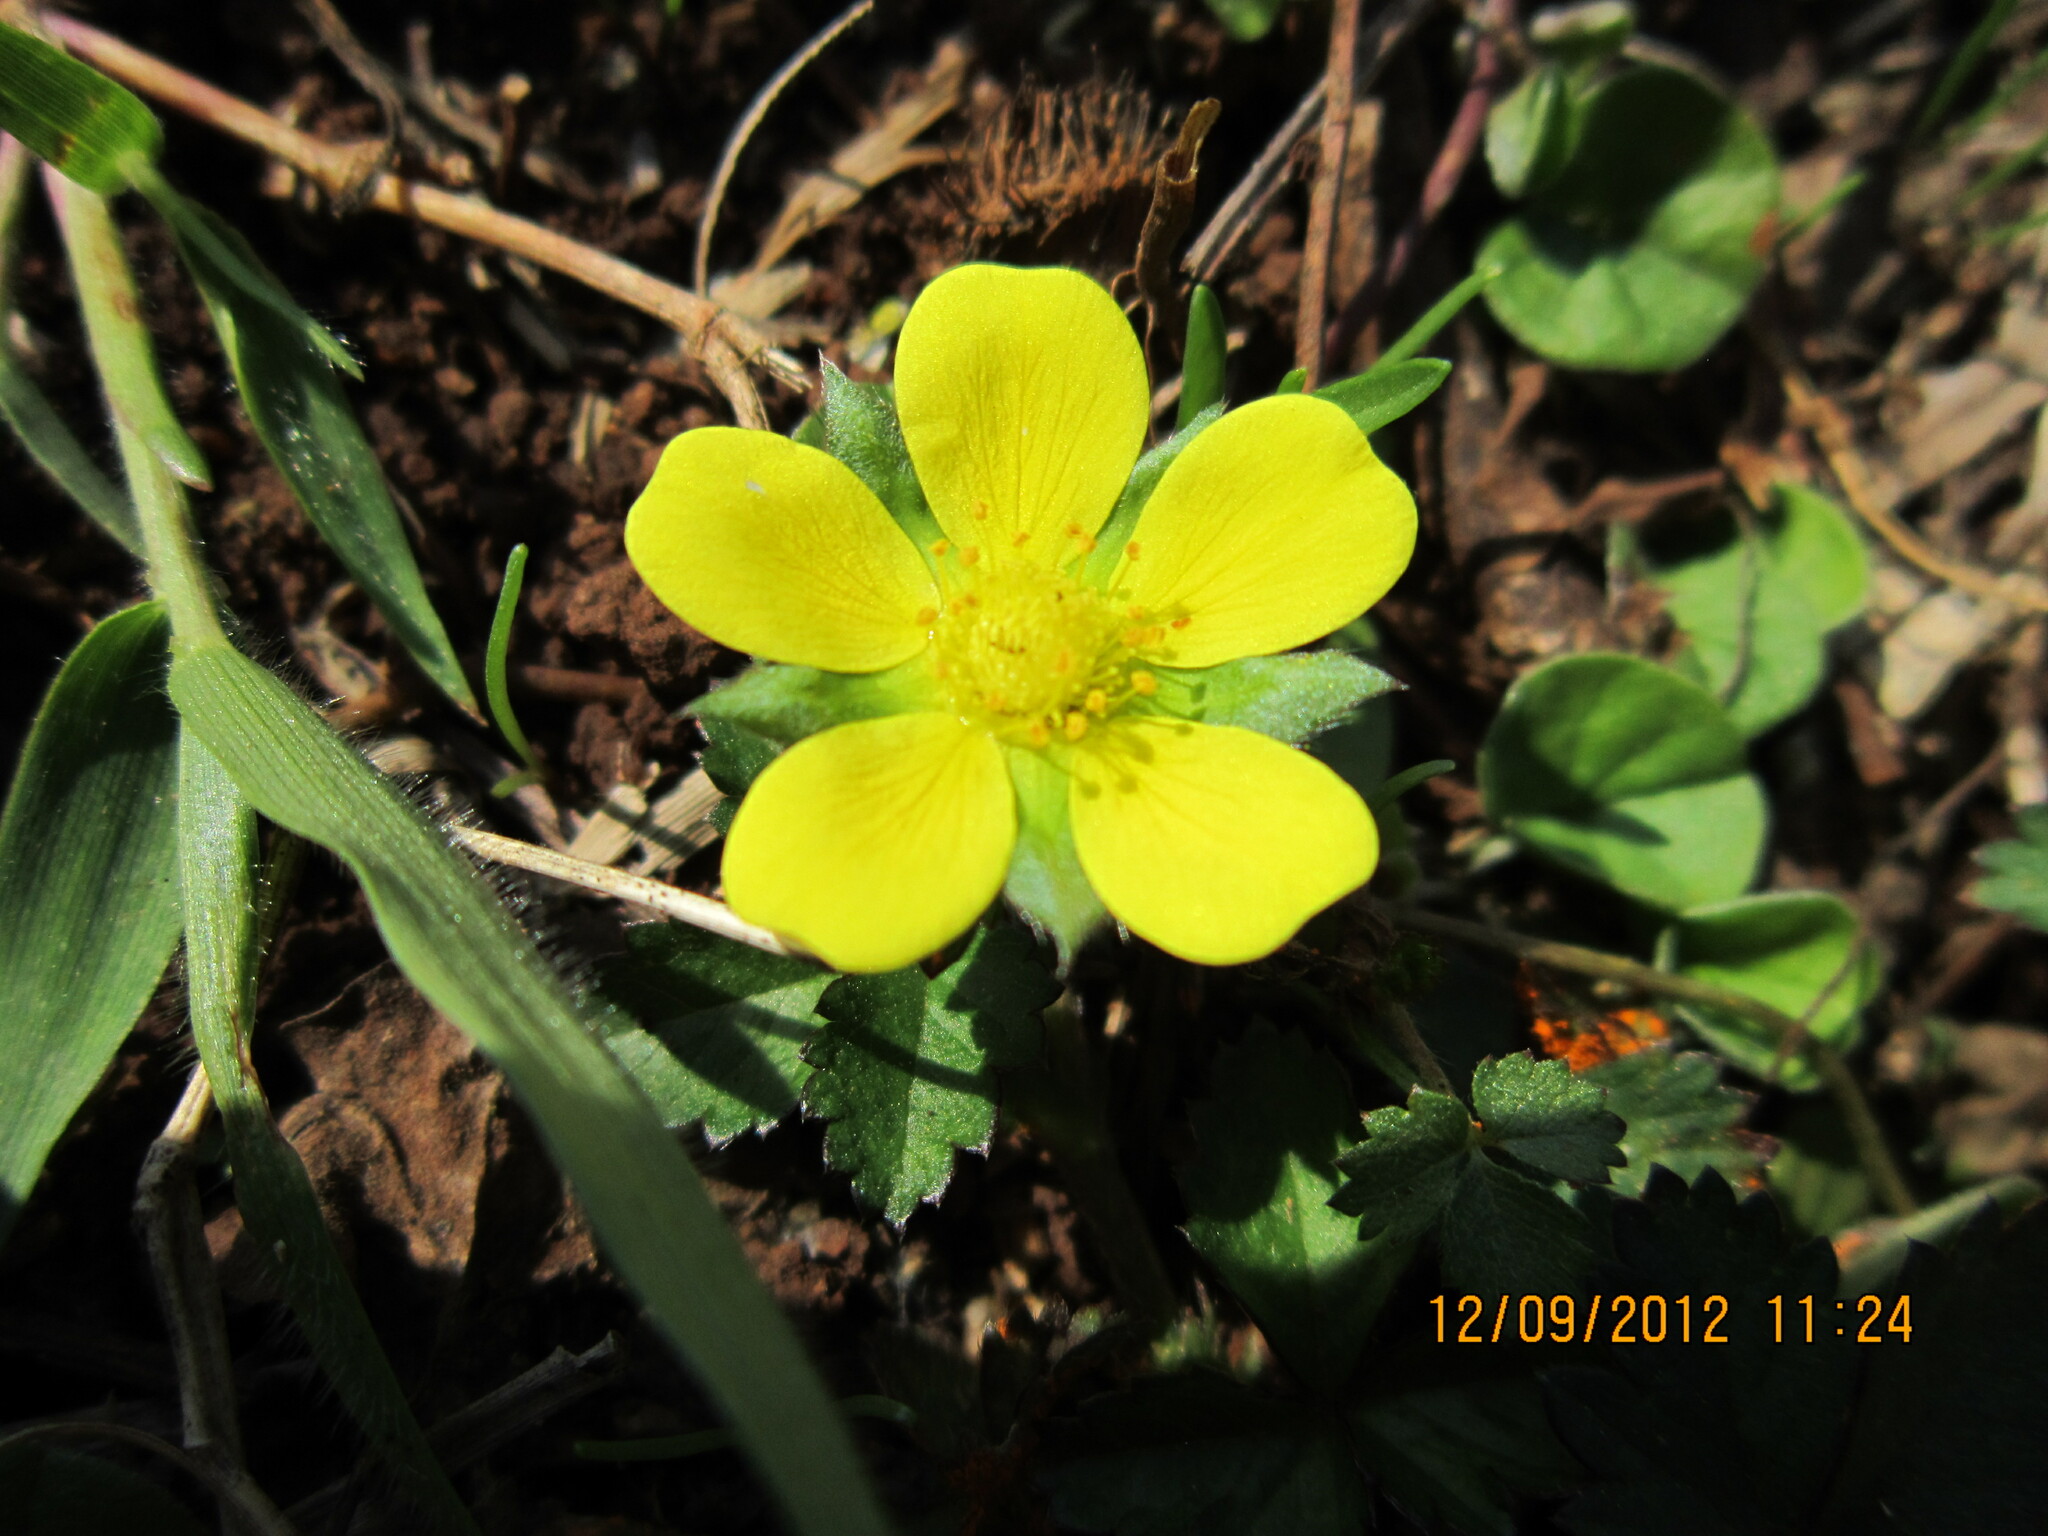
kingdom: Plantae
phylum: Tracheophyta
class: Magnoliopsida
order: Rosales
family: Rosaceae
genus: Potentilla
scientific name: Potentilla indica
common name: Yellow-flowered strawberry
